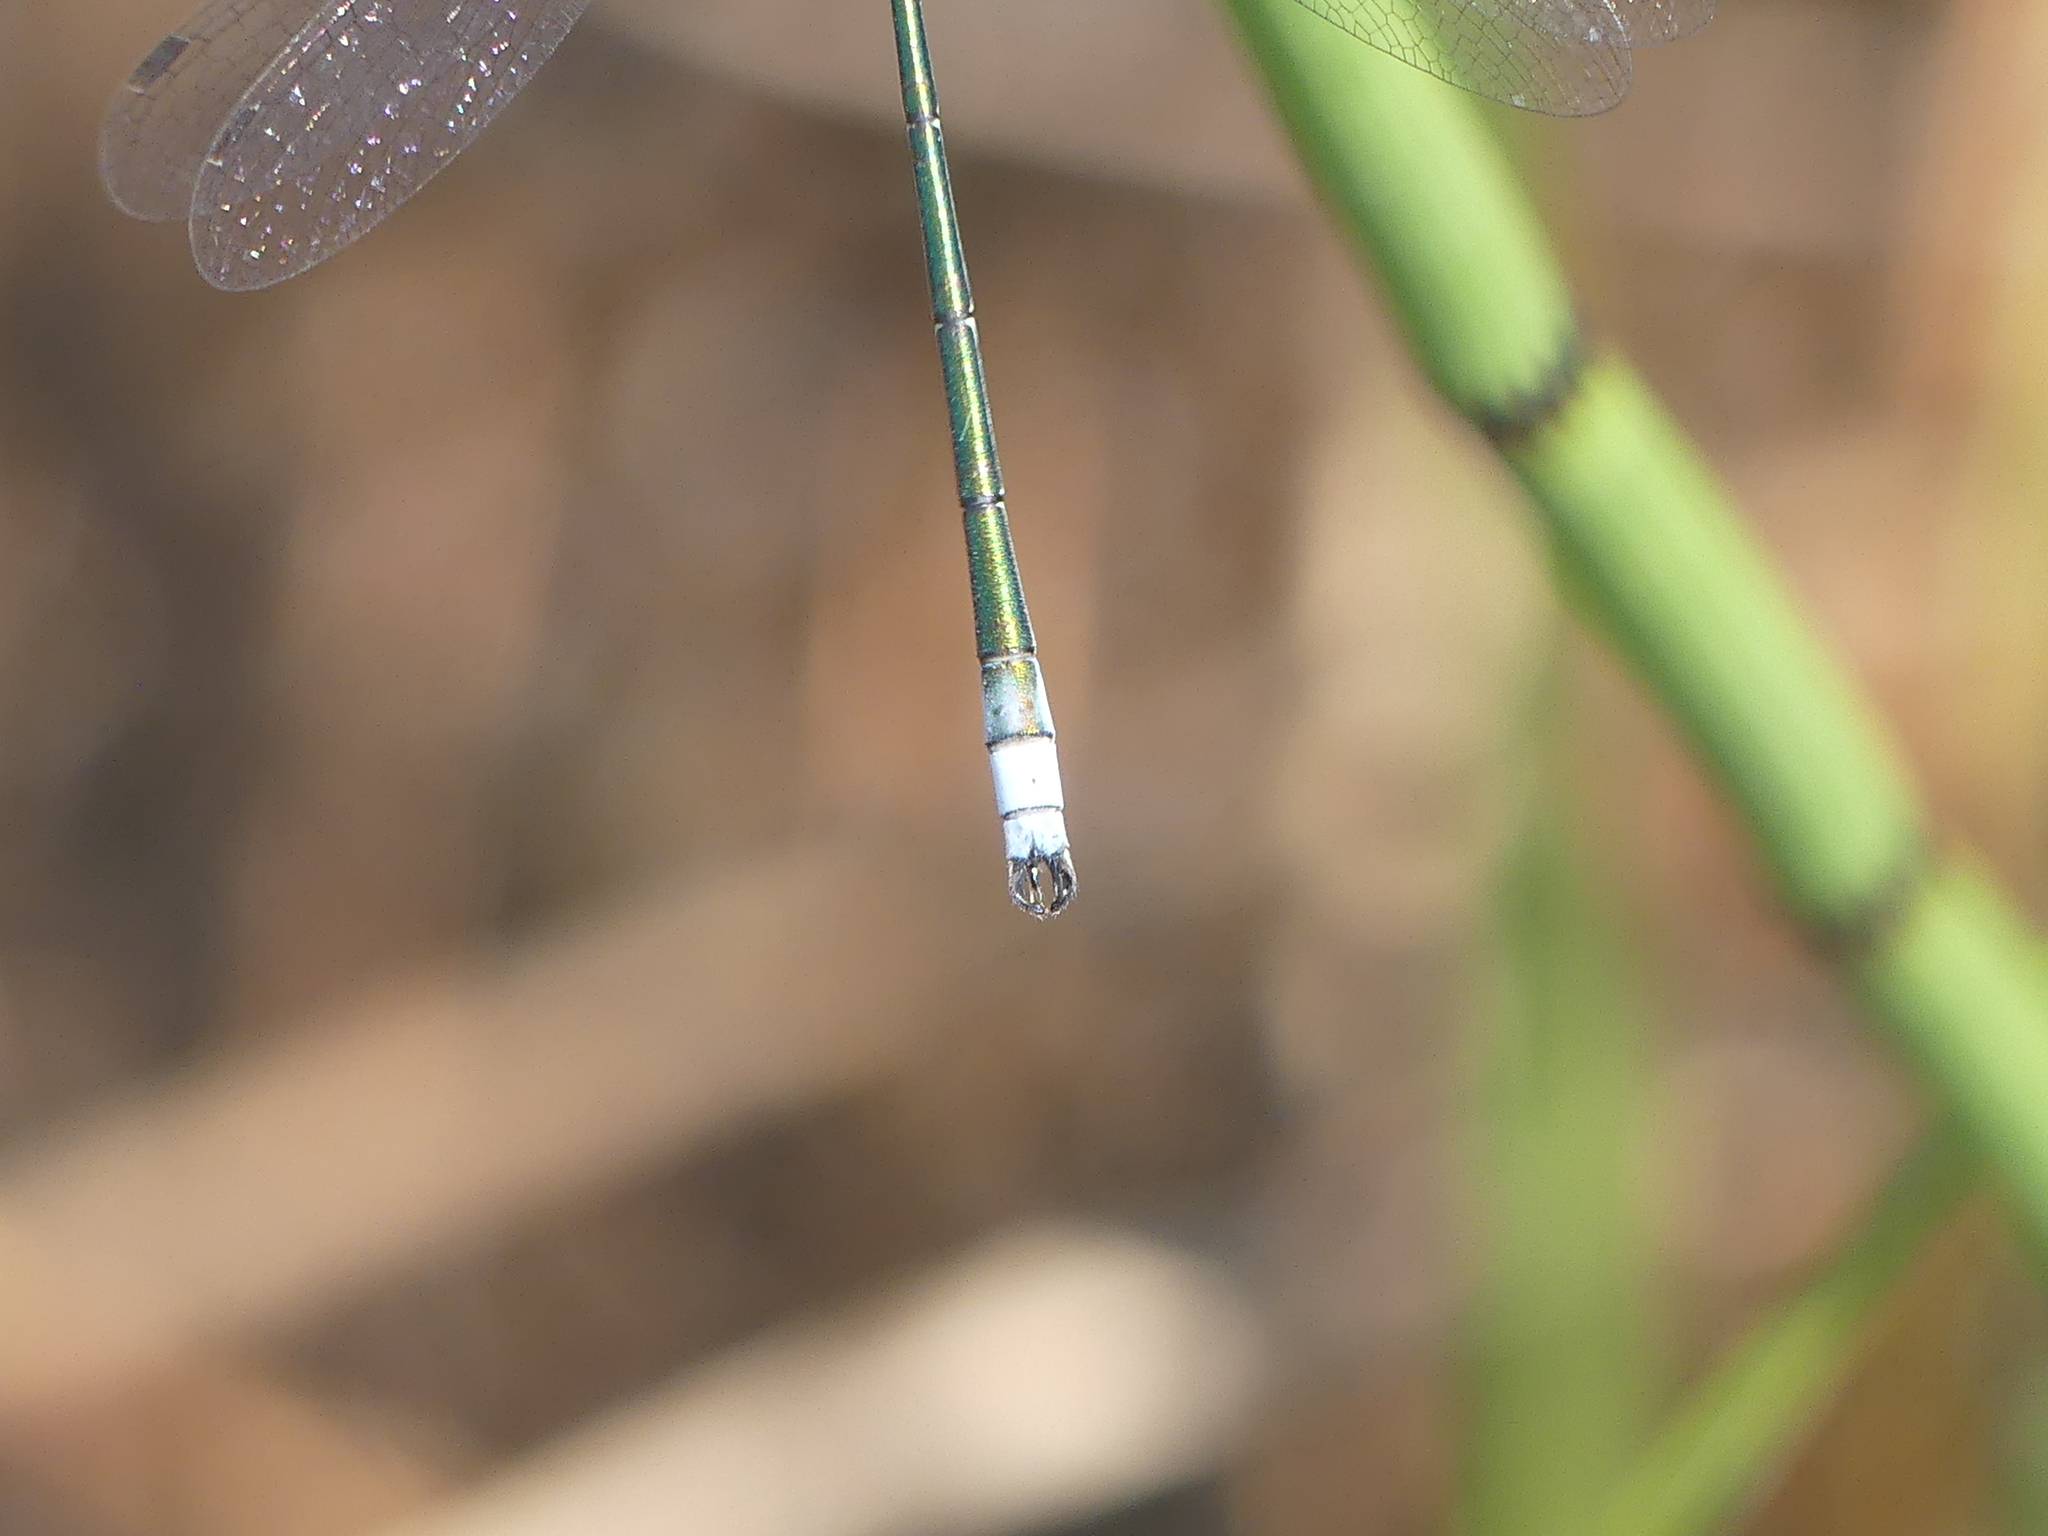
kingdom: Animalia
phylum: Arthropoda
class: Insecta
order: Odonata
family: Lestidae
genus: Lestes
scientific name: Lestes sponsa
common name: Common spreadwing
